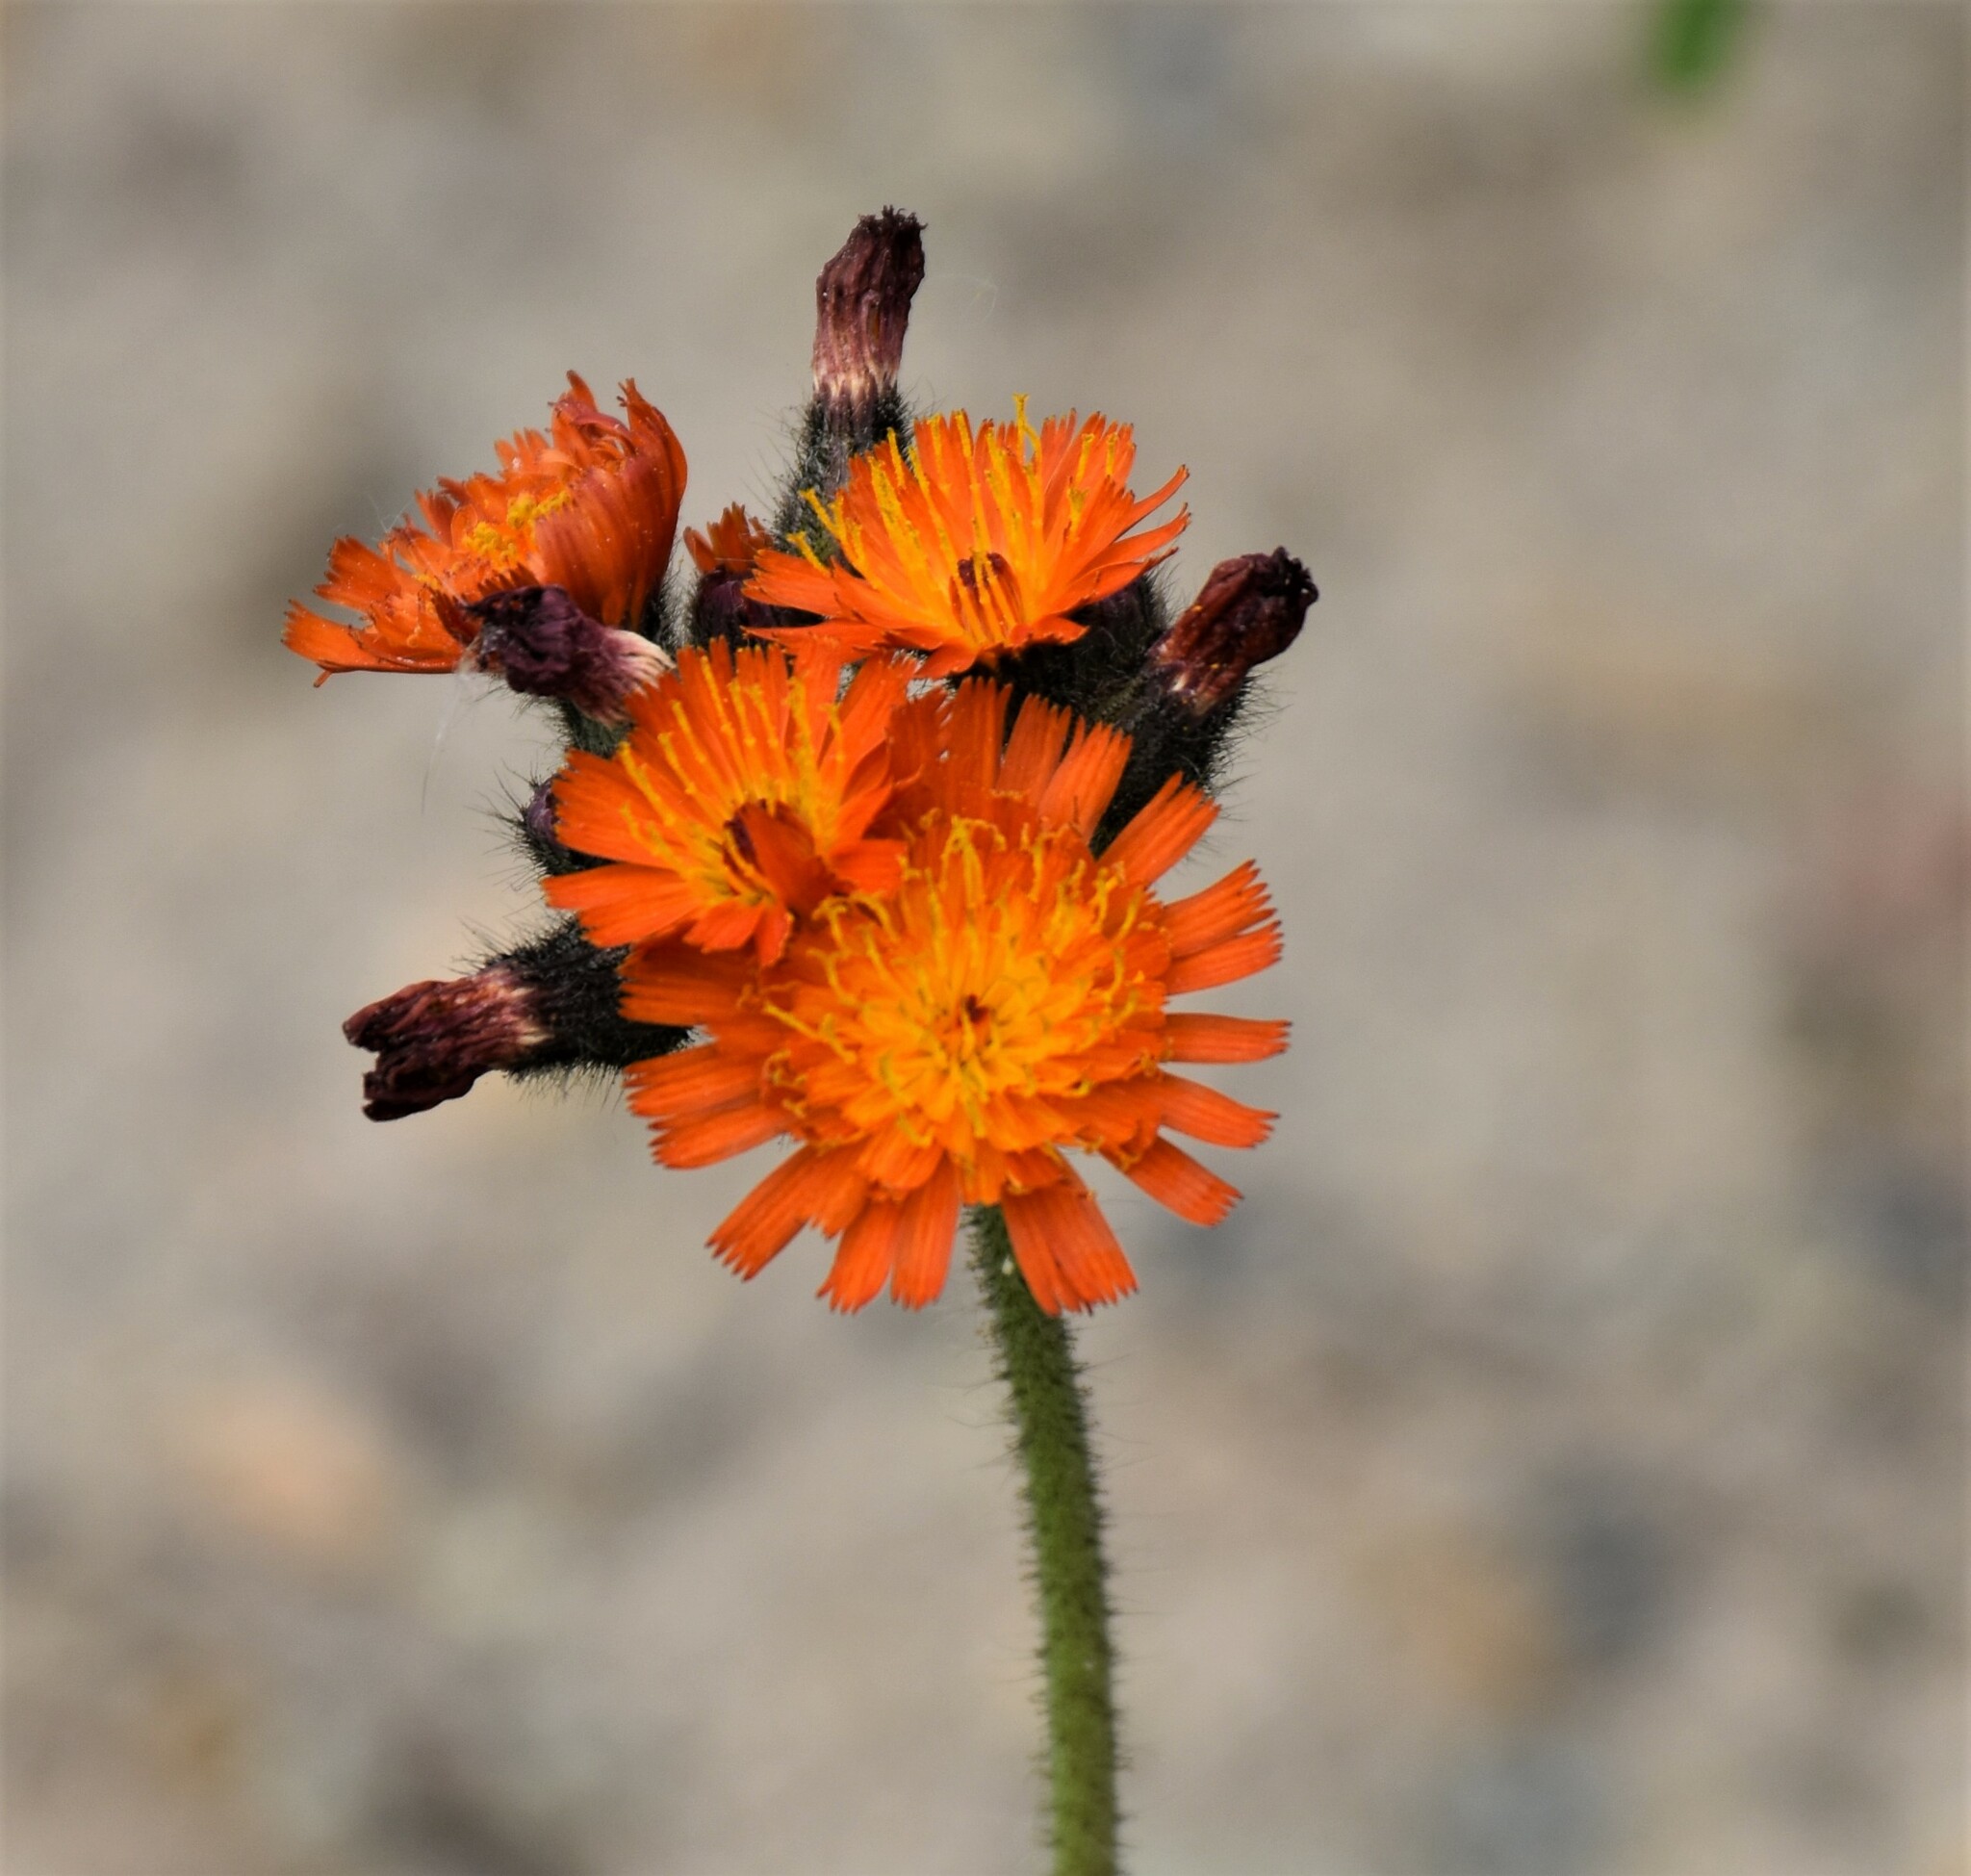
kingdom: Plantae
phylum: Tracheophyta
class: Magnoliopsida
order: Asterales
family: Asteraceae
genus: Pilosella
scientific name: Pilosella aurantiaca
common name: Fox-and-cubs
